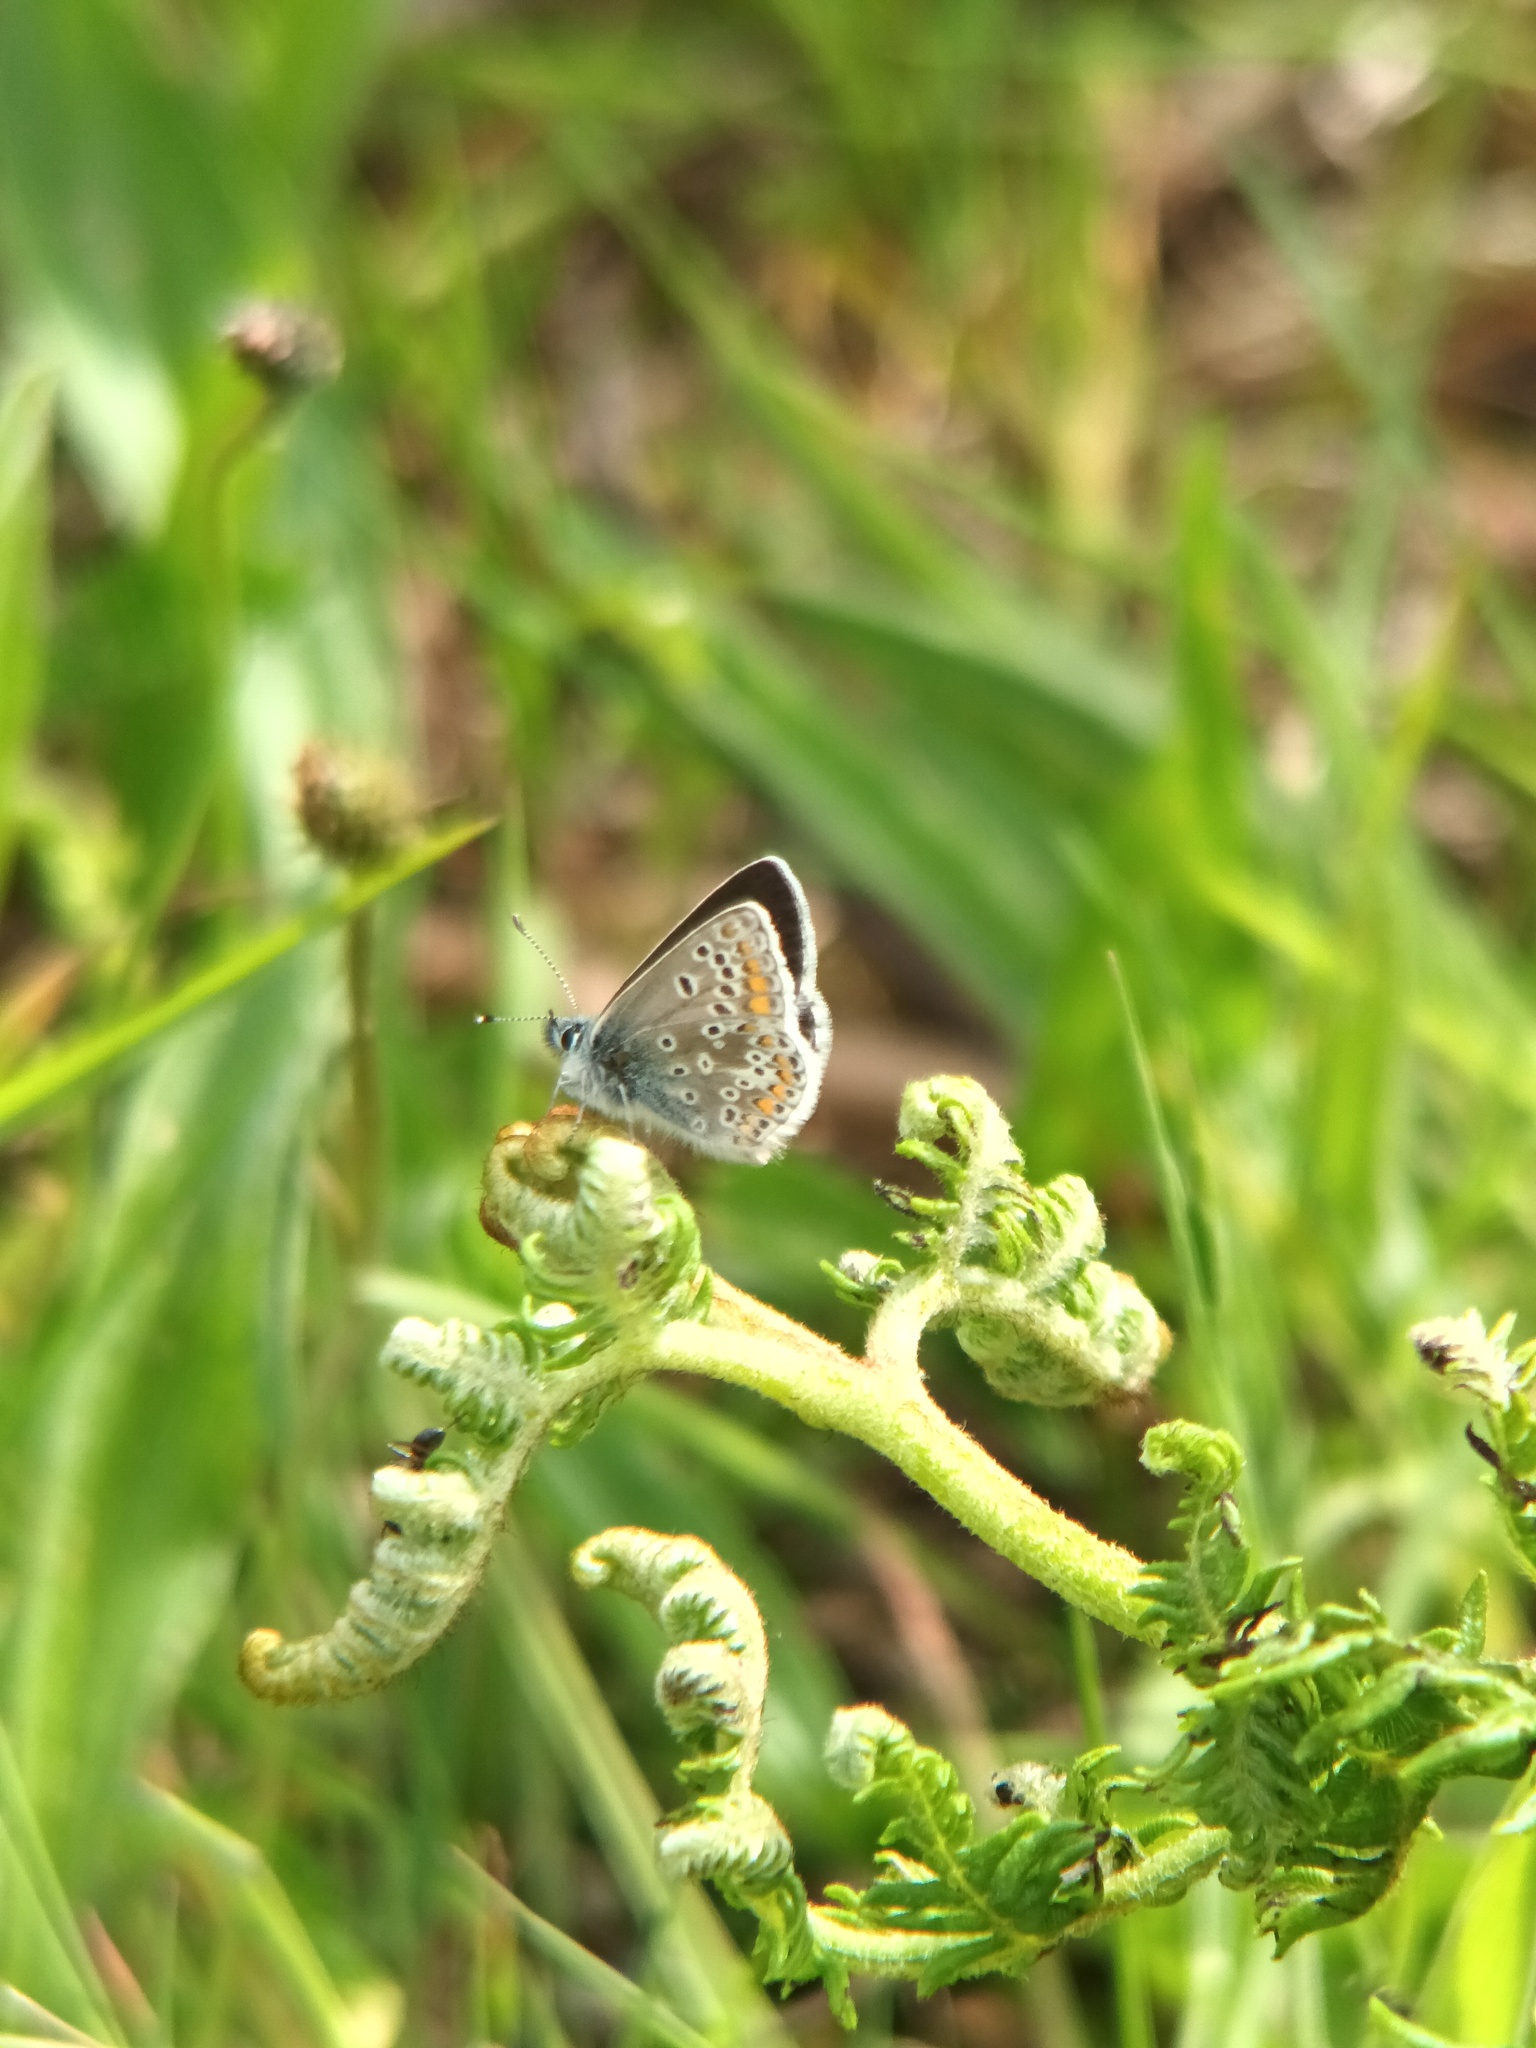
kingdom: Animalia
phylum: Arthropoda
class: Insecta
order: Lepidoptera
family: Lycaenidae
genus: Aricia
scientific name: Aricia agestis
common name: Brown argus
